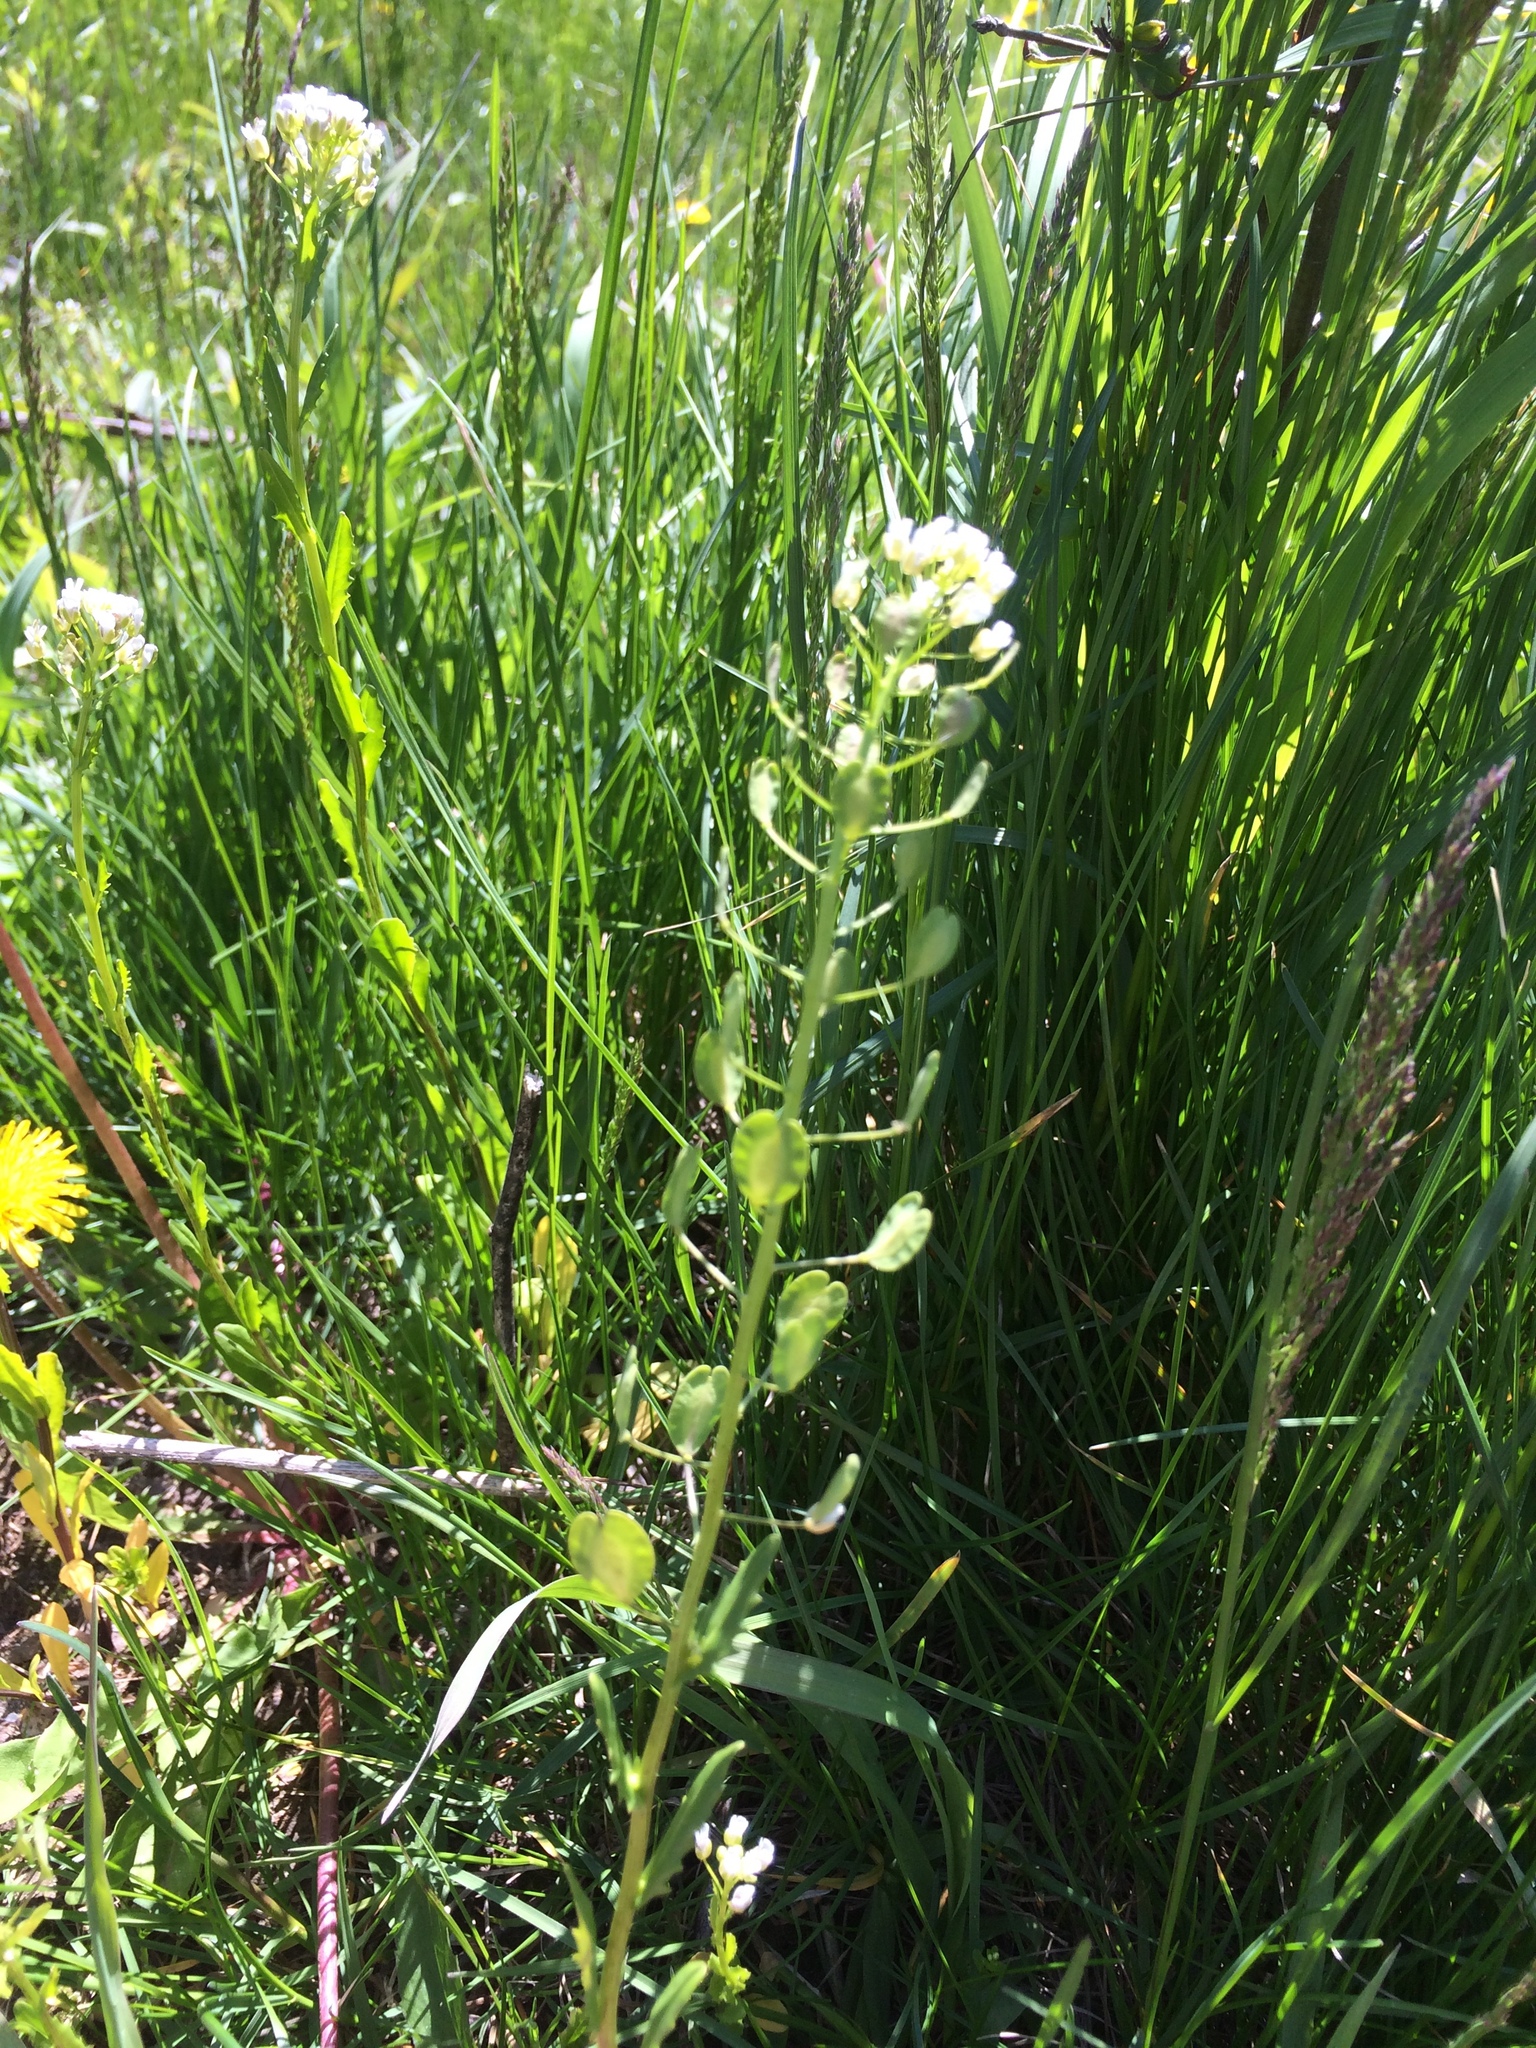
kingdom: Plantae
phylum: Tracheophyta
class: Magnoliopsida
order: Brassicales
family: Brassicaceae
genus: Thlaspi
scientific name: Thlaspi arvense
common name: Field pennycress
